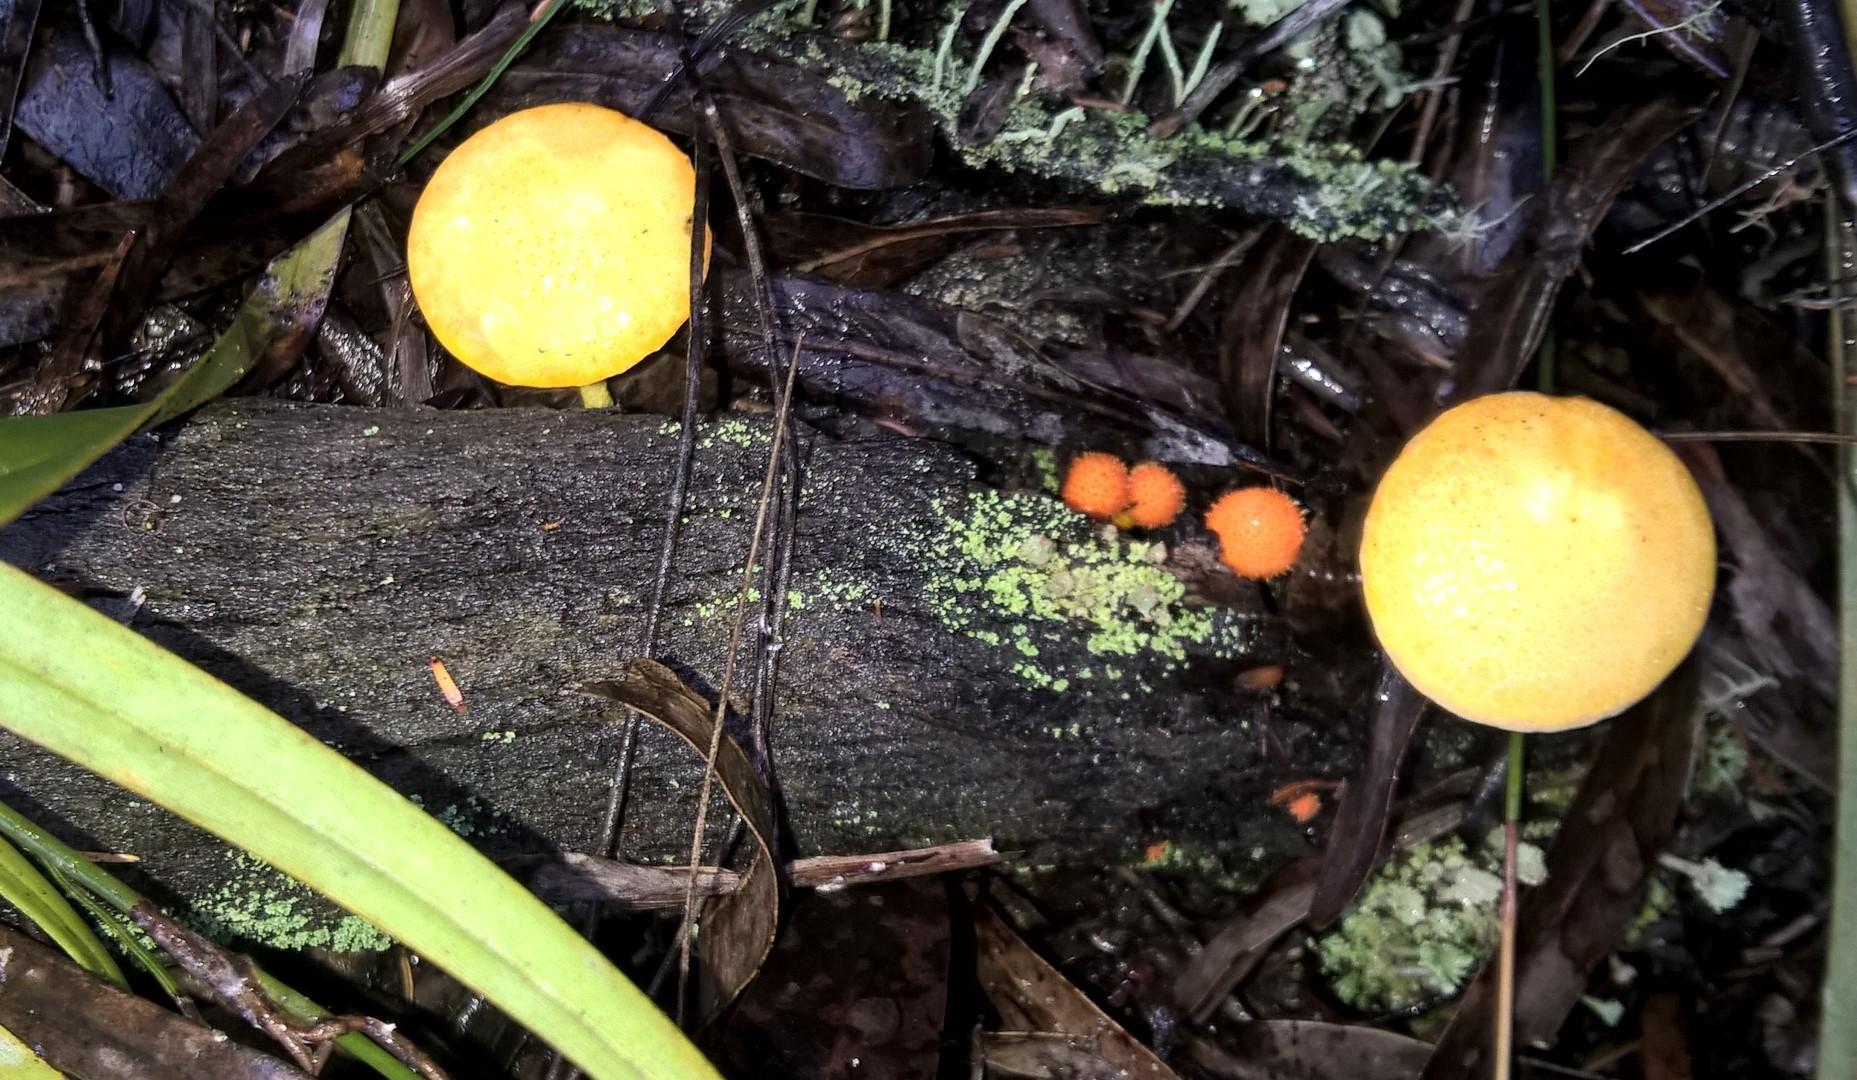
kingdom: Fungi
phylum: Basidiomycota
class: Agaricomycetes
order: Agaricales
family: Physalacriaceae
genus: Cyptotrama
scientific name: Cyptotrama asprata
